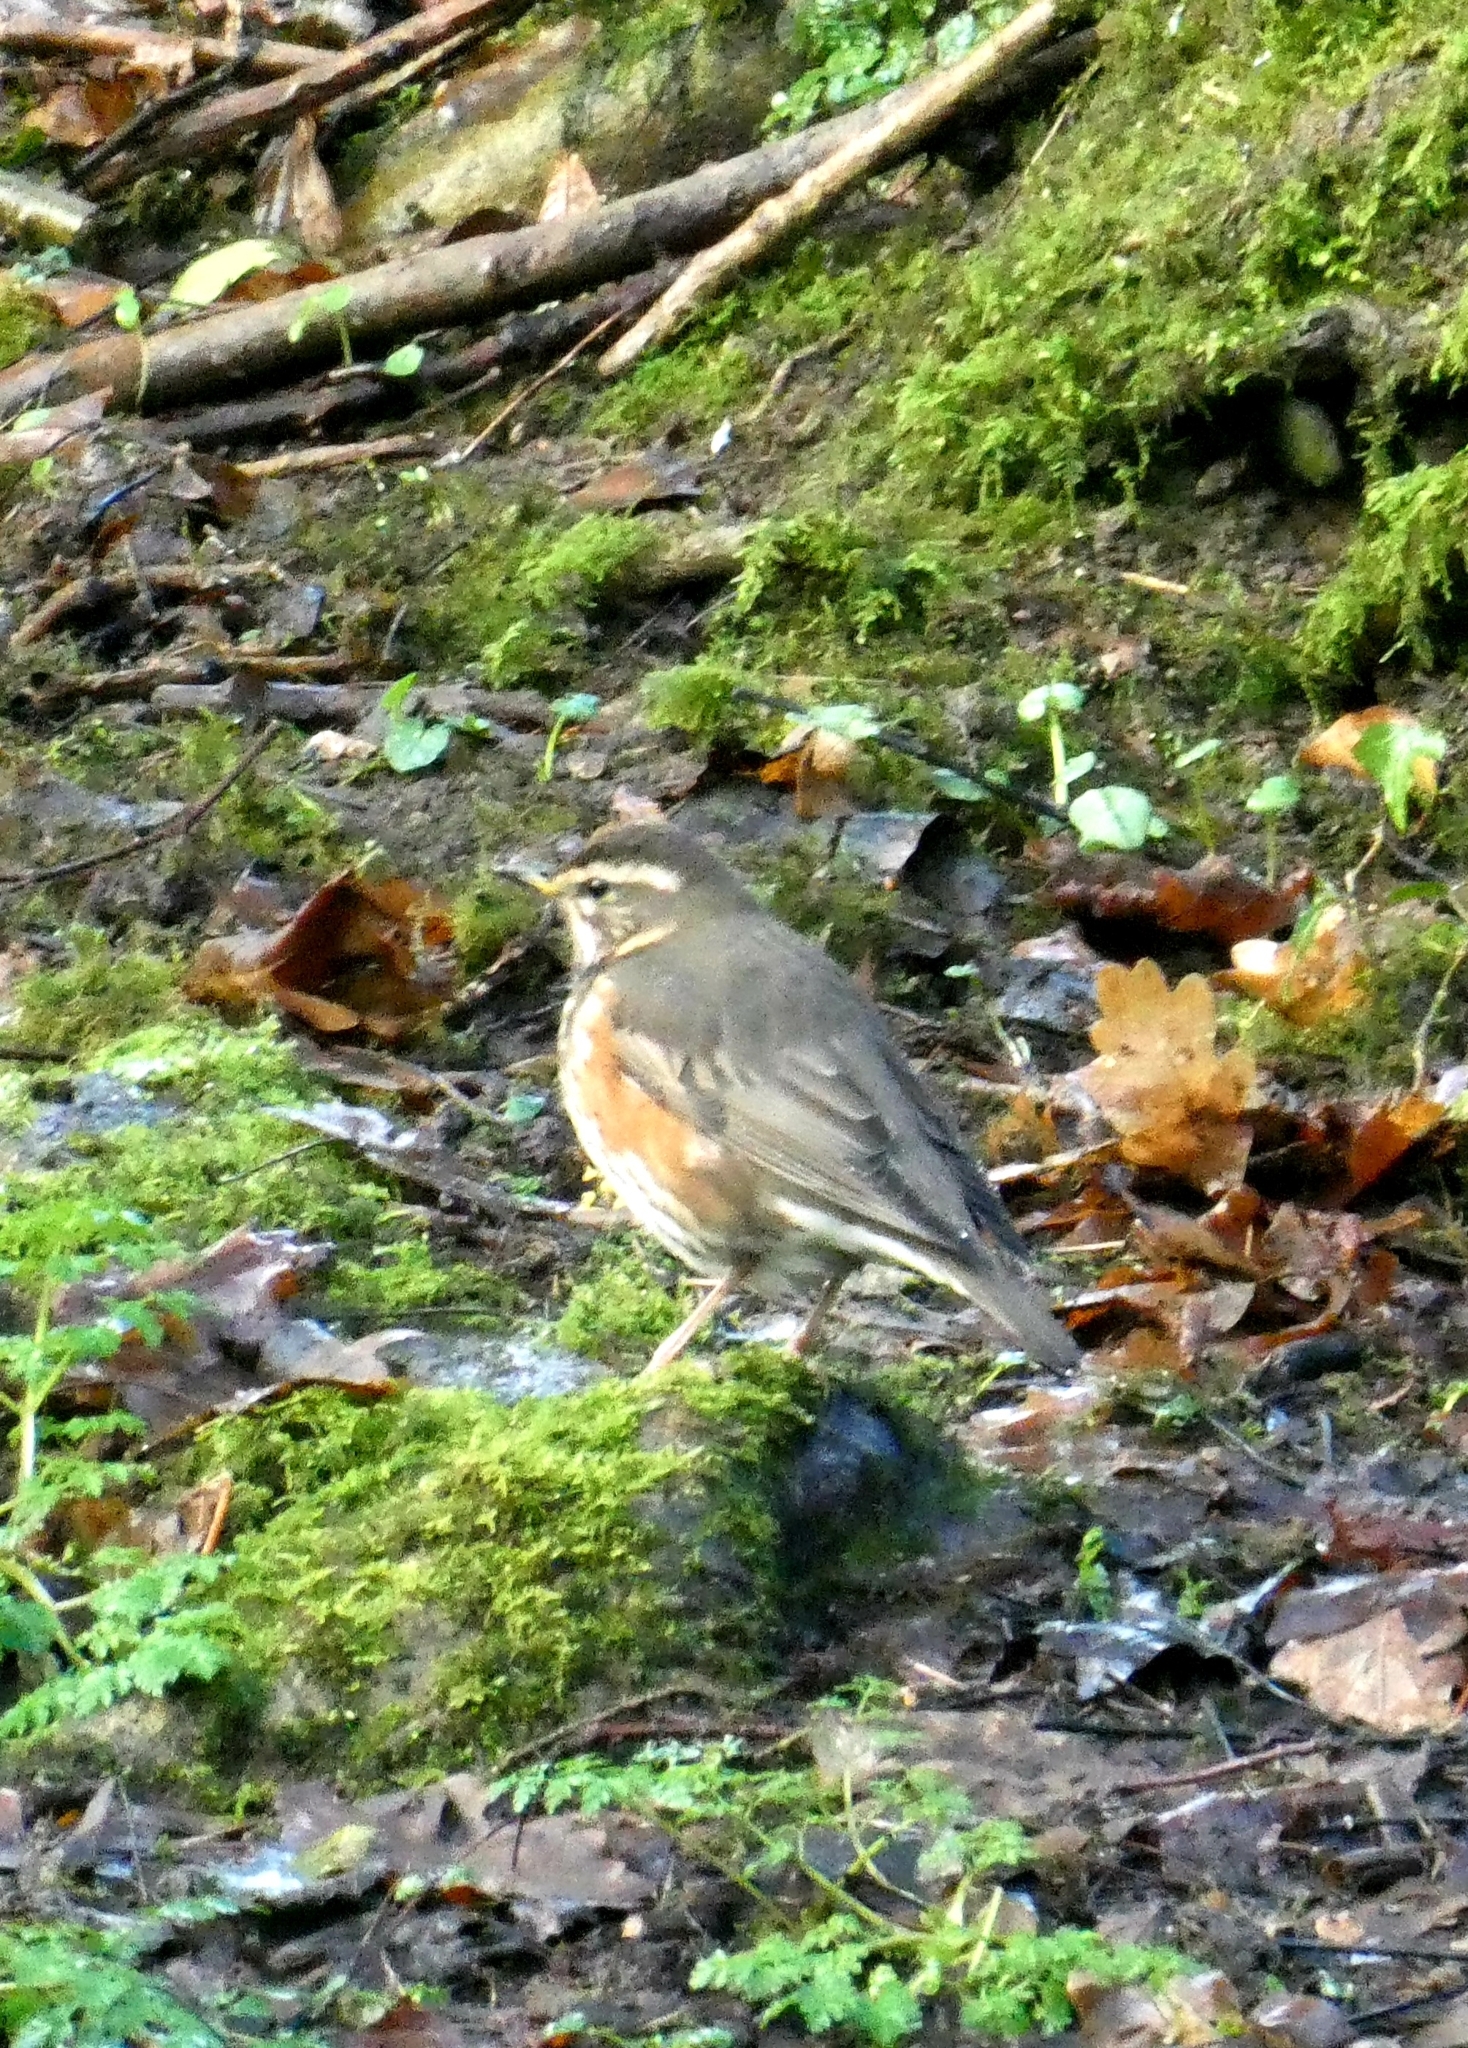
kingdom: Animalia
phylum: Chordata
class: Aves
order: Passeriformes
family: Turdidae
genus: Turdus
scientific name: Turdus iliacus
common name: Redwing
